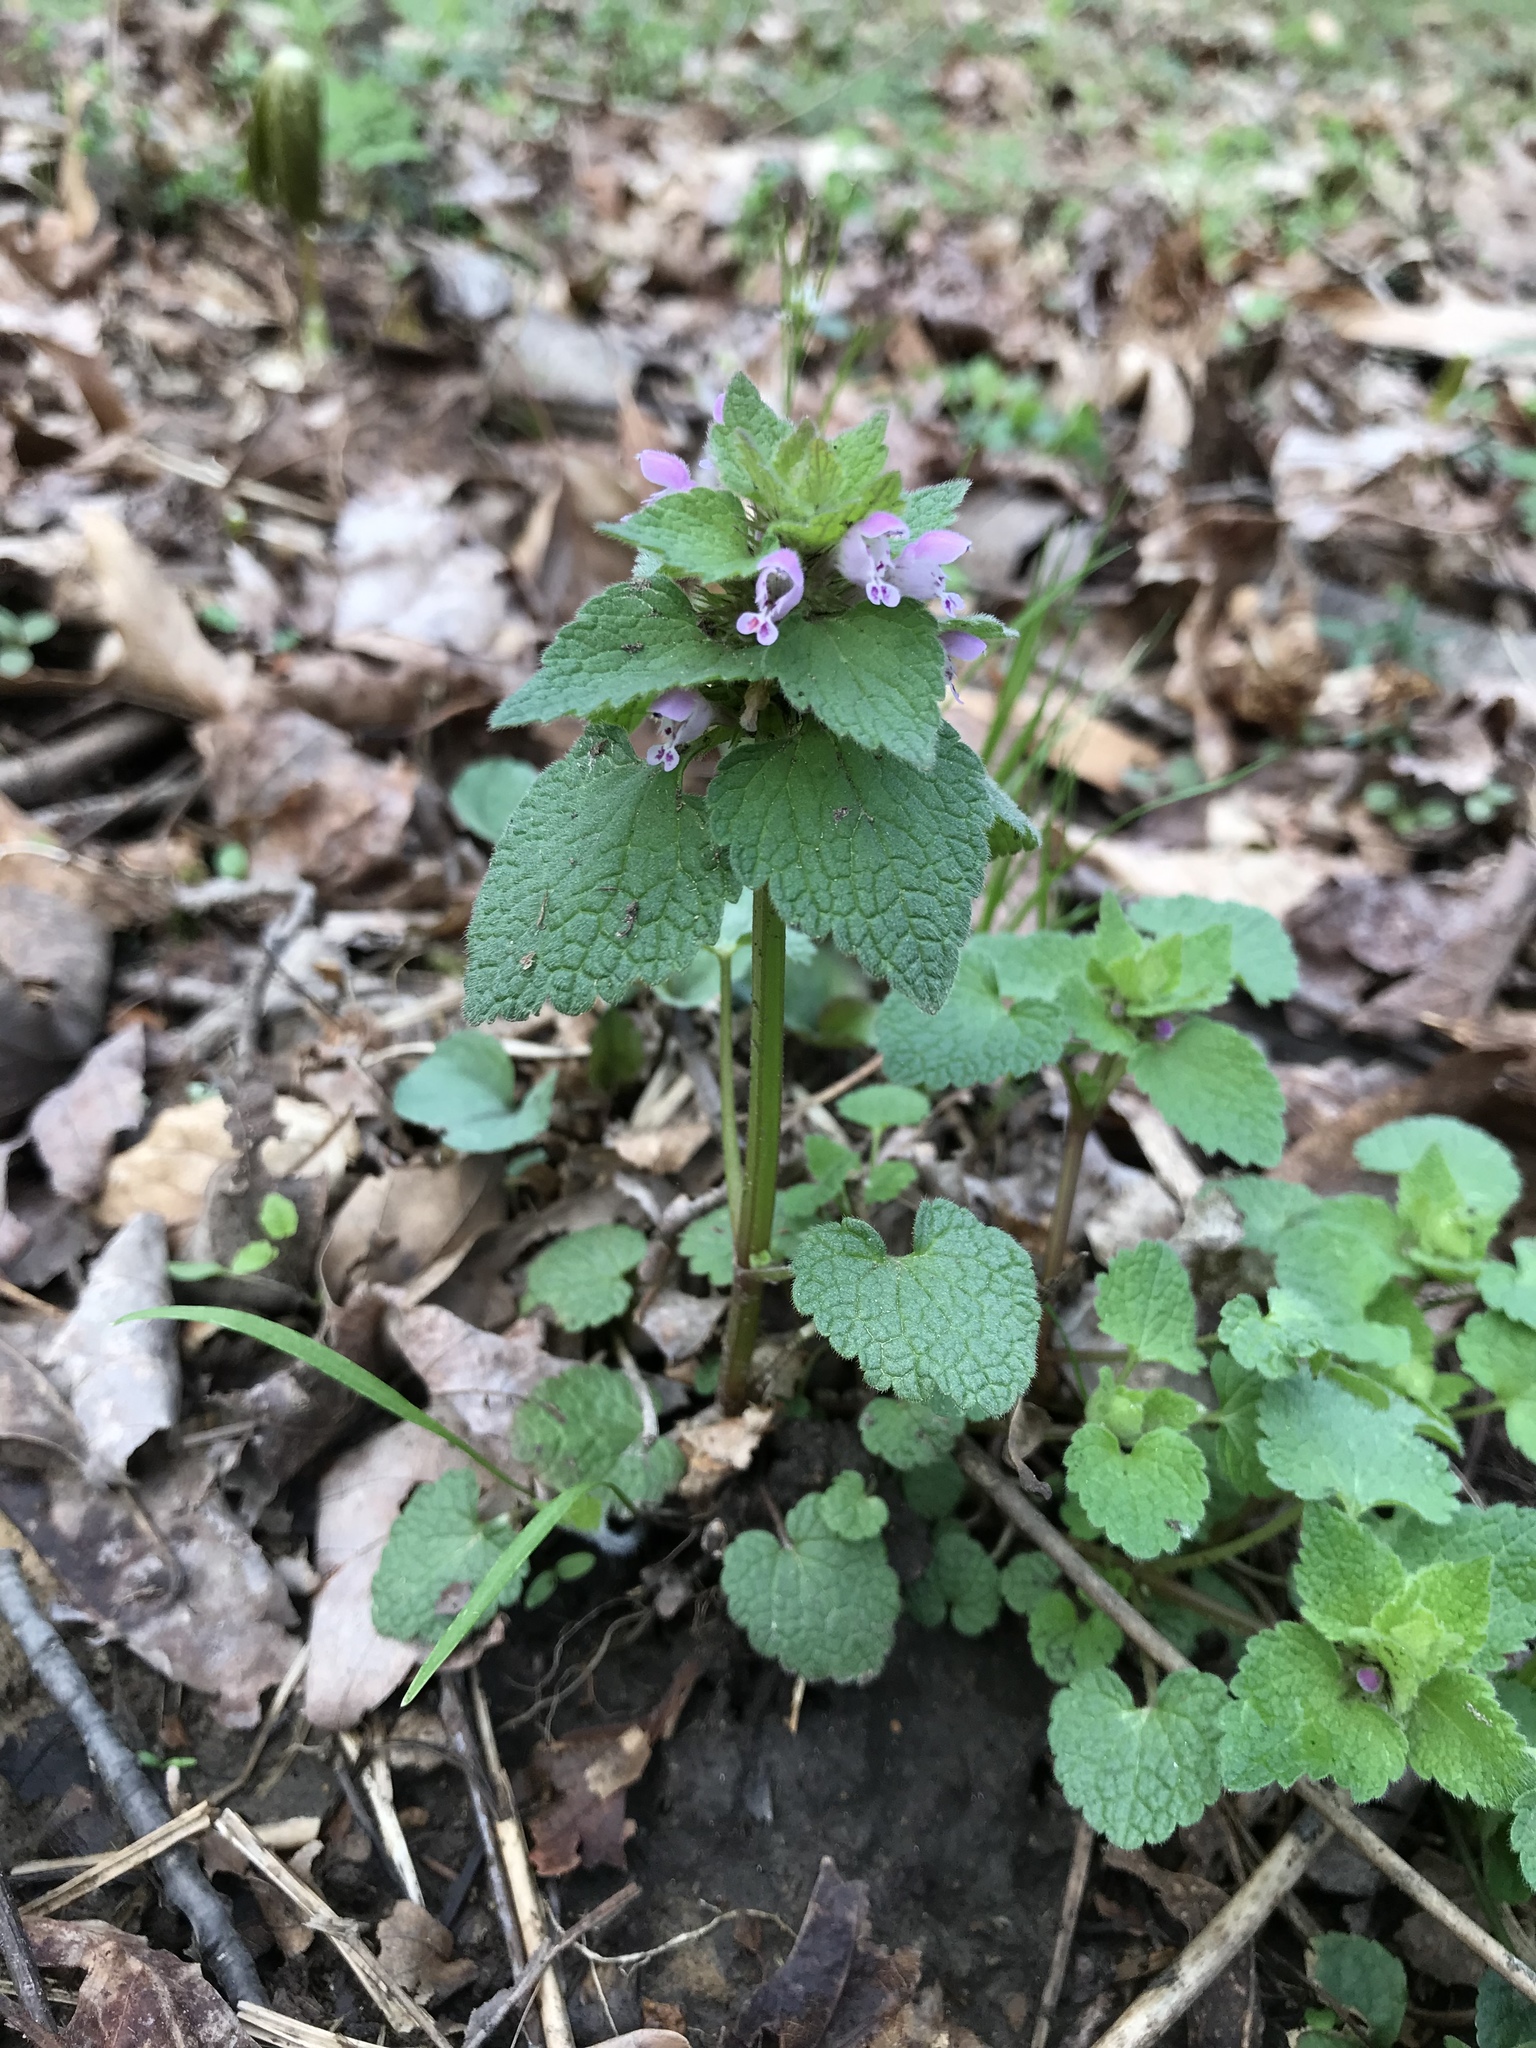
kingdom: Plantae
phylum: Tracheophyta
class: Magnoliopsida
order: Lamiales
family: Lamiaceae
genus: Lamium
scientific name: Lamium purpureum
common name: Red dead-nettle
